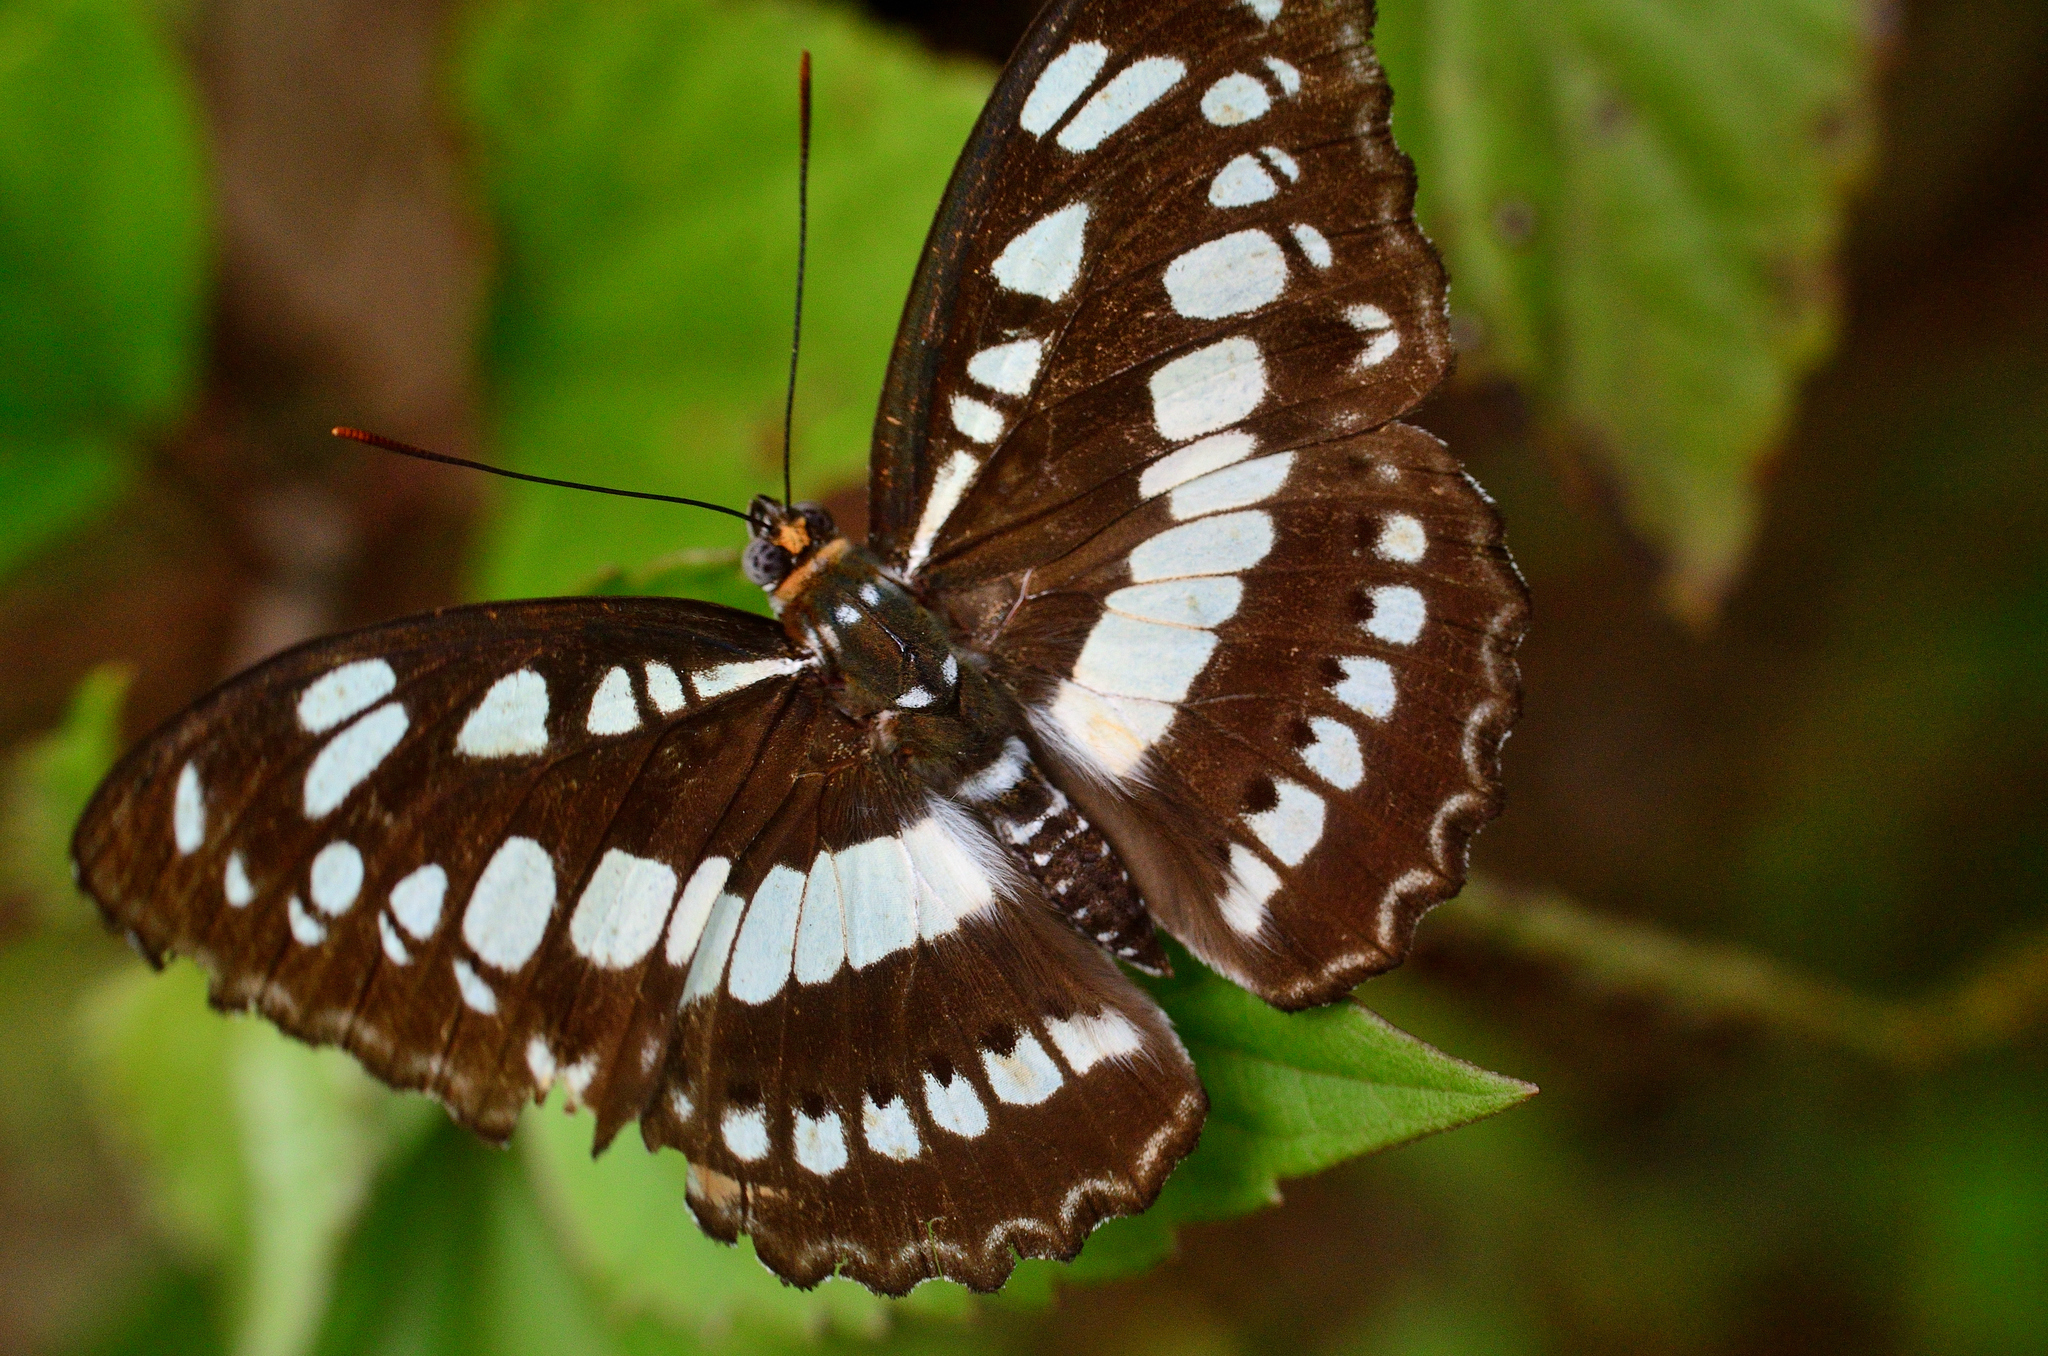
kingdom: Animalia
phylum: Arthropoda
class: Insecta
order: Lepidoptera
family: Nymphalidae
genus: Parathyma
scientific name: Parathyma perius
